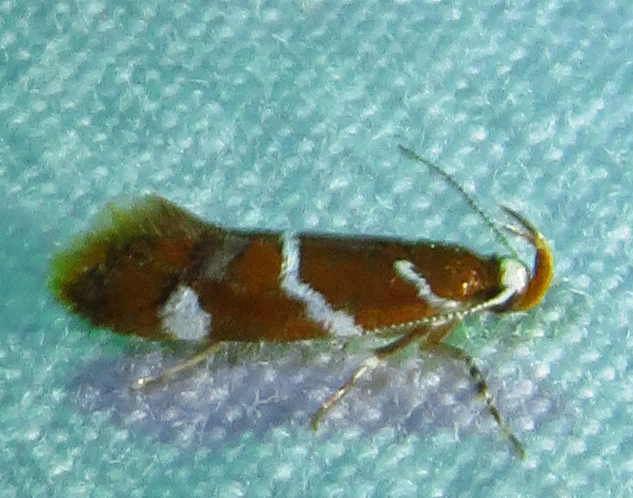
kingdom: Animalia
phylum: Arthropoda
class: Insecta
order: Lepidoptera
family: Oecophoridae
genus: Promalactis
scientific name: Promalactis suzukiella
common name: Moth
